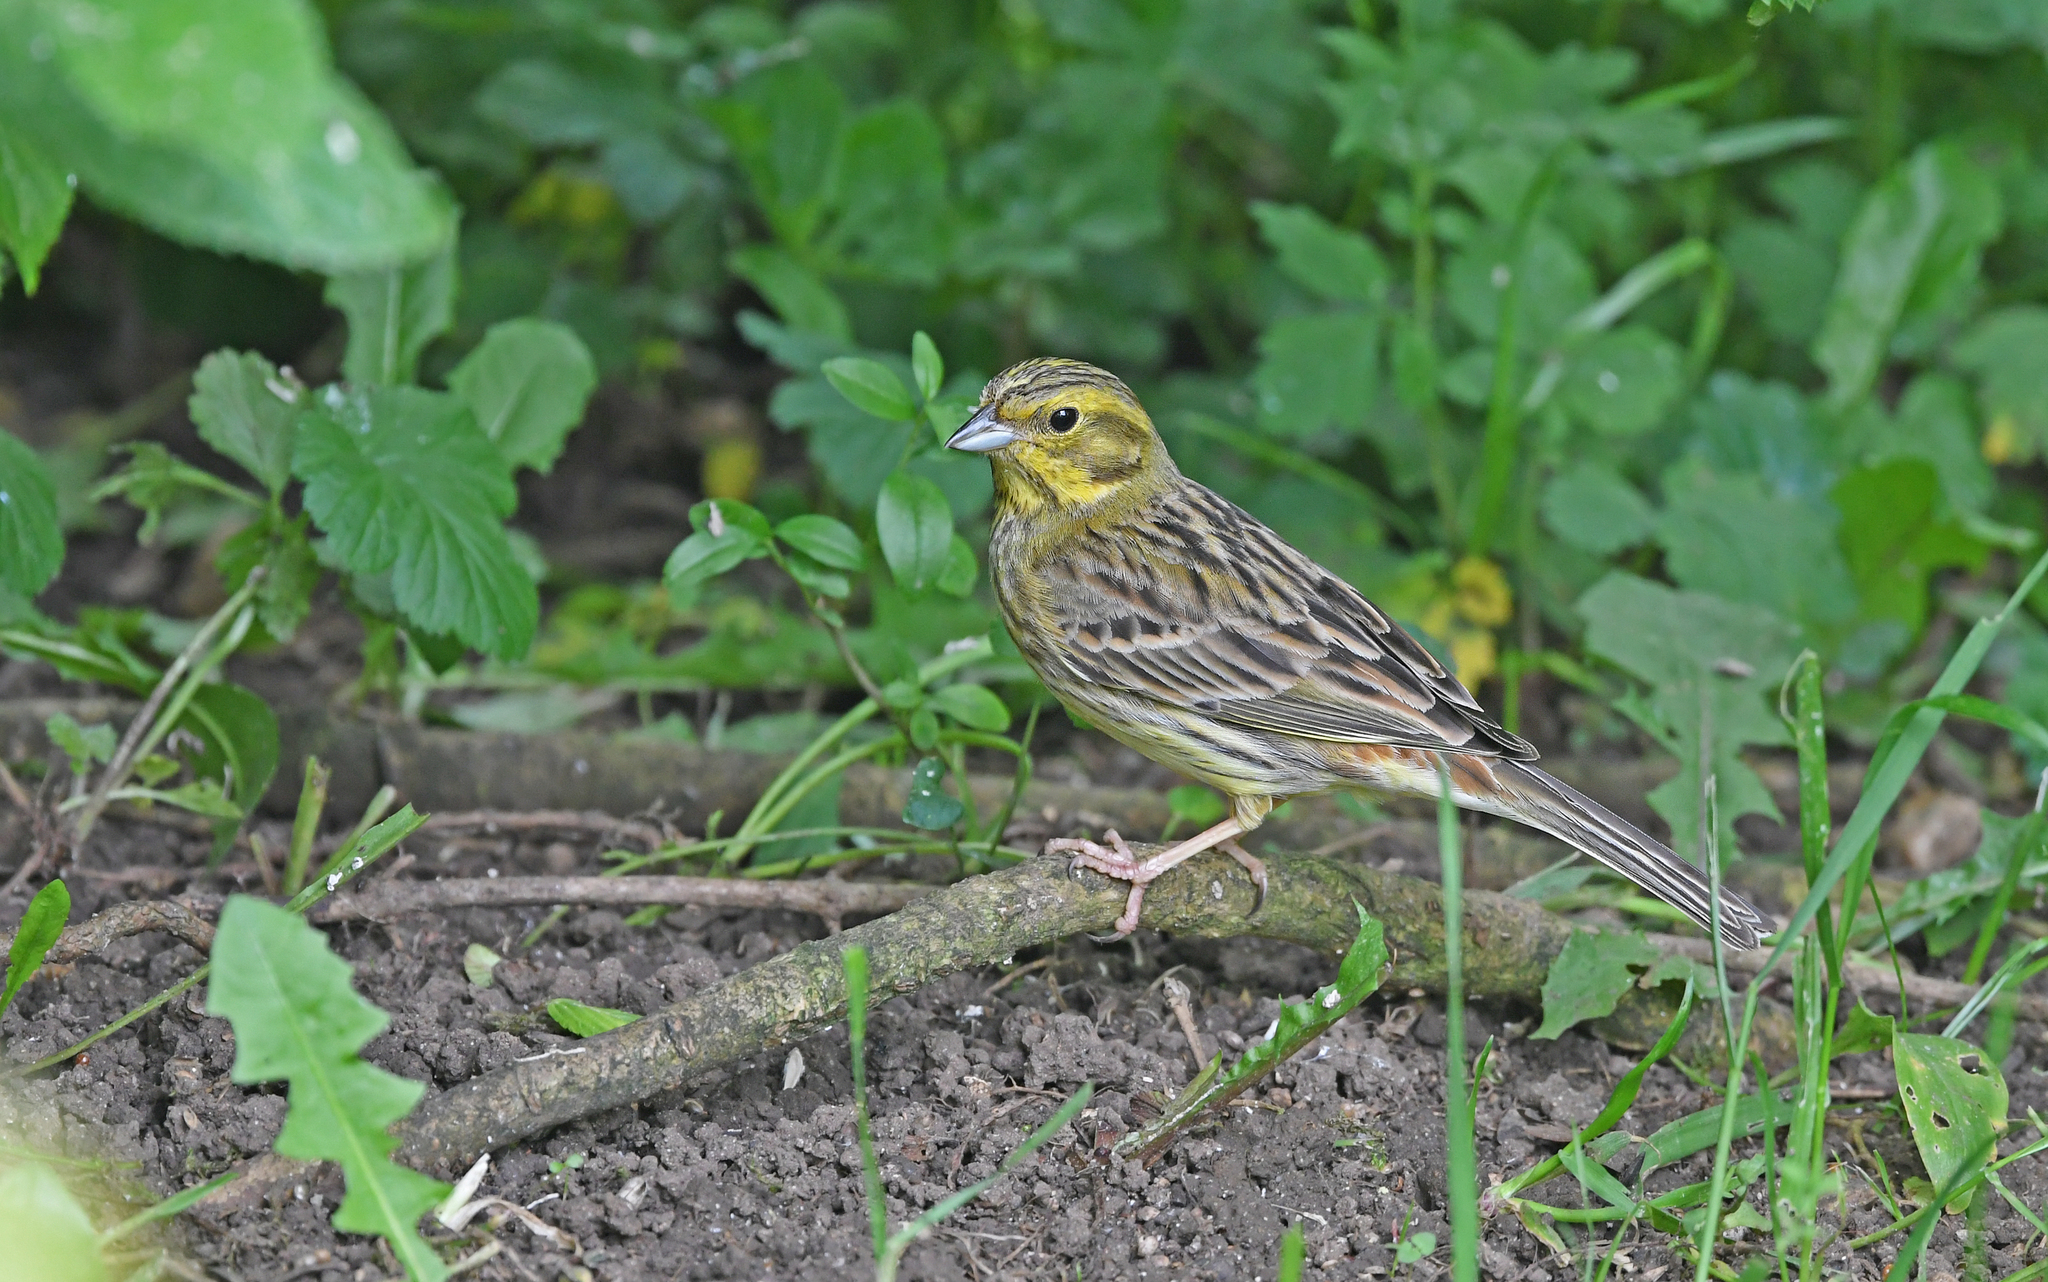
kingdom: Animalia
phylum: Chordata
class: Aves
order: Passeriformes
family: Emberizidae
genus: Emberiza
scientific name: Emberiza citrinella
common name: Yellowhammer
